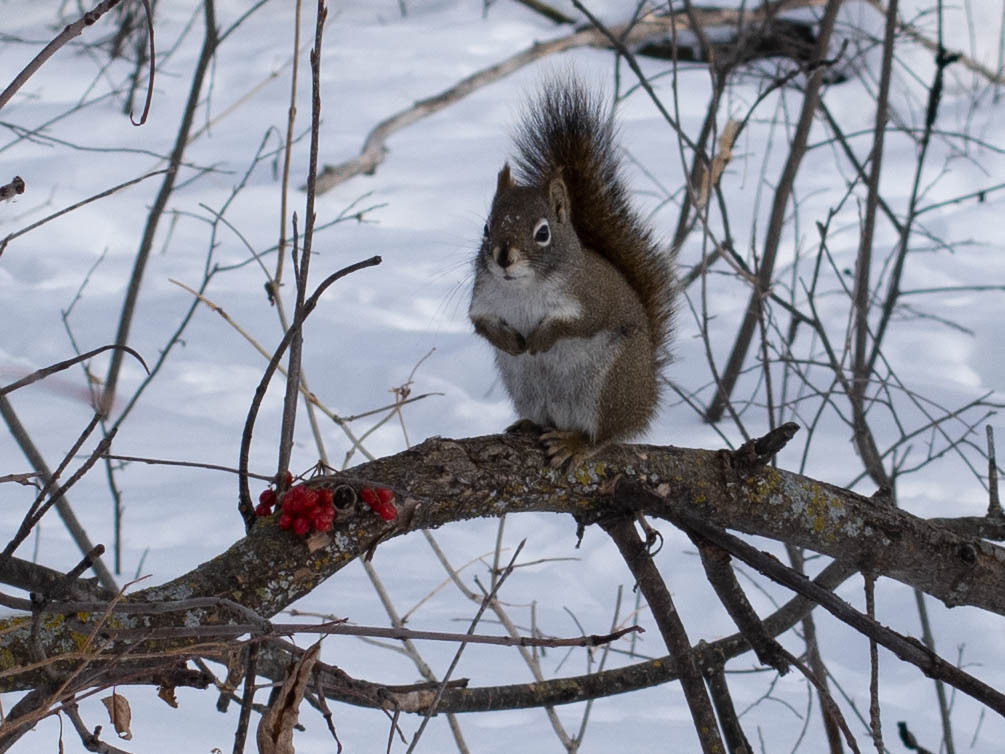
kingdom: Animalia
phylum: Chordata
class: Mammalia
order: Rodentia
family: Sciuridae
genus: Tamiasciurus
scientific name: Tamiasciurus hudsonicus
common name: Red squirrel
